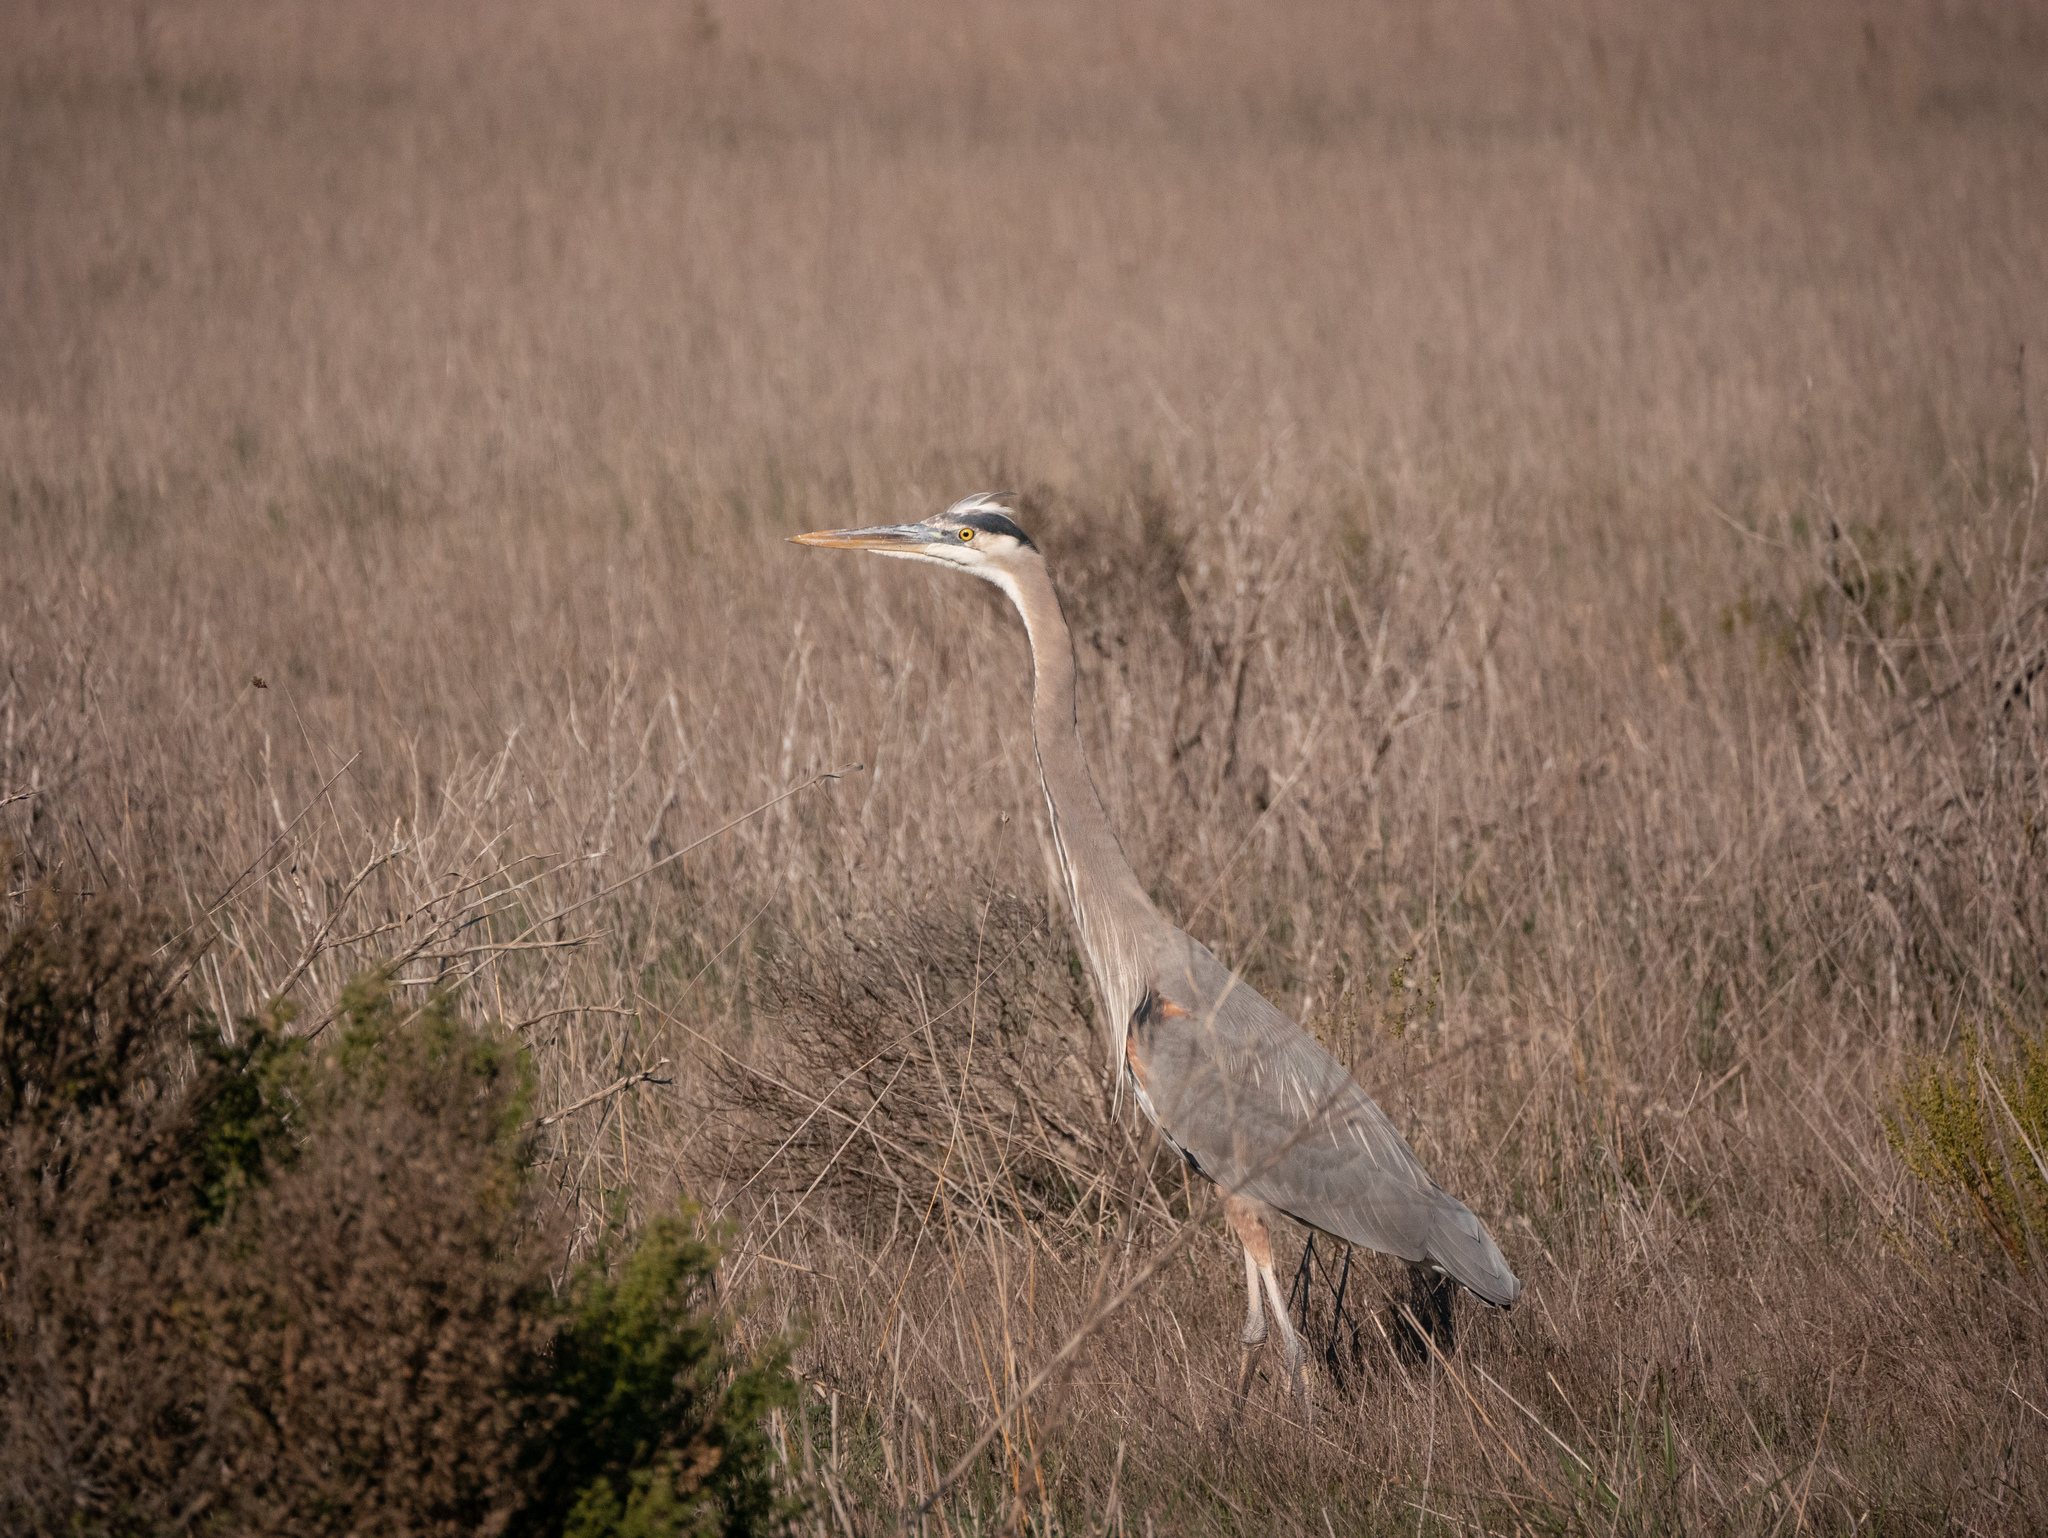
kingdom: Animalia
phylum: Chordata
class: Aves
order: Pelecaniformes
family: Ardeidae
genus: Ardea
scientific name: Ardea herodias
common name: Great blue heron
